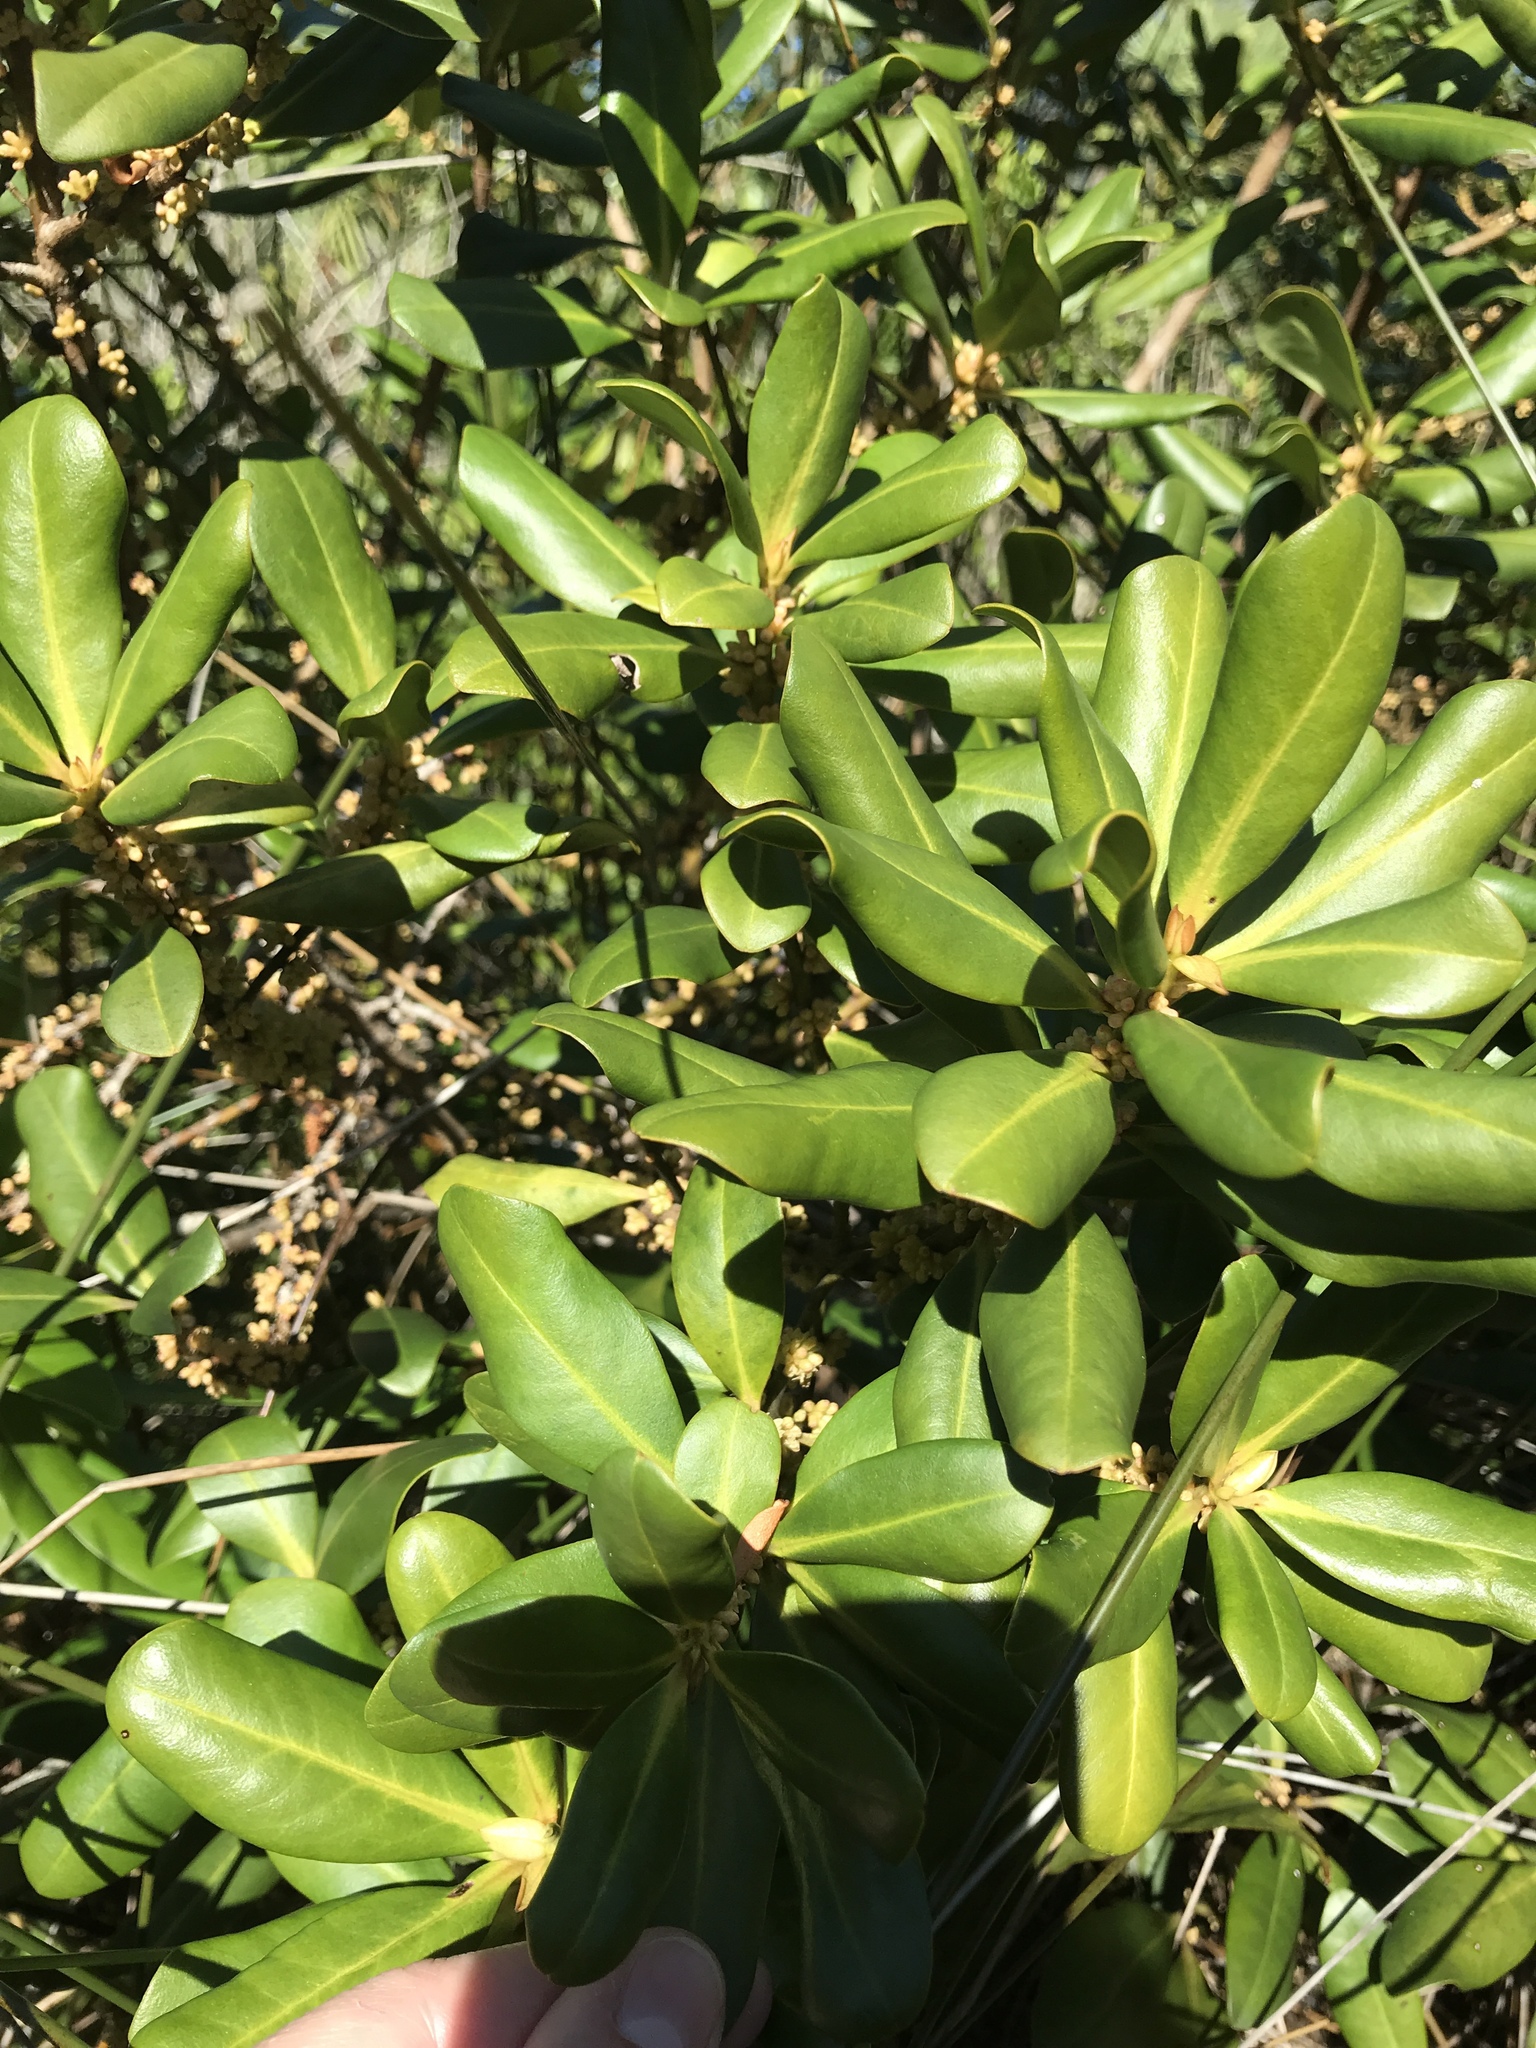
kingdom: Plantae
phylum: Tracheophyta
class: Magnoliopsida
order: Ericales
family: Primulaceae
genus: Myrsine
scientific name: Myrsine floridana
